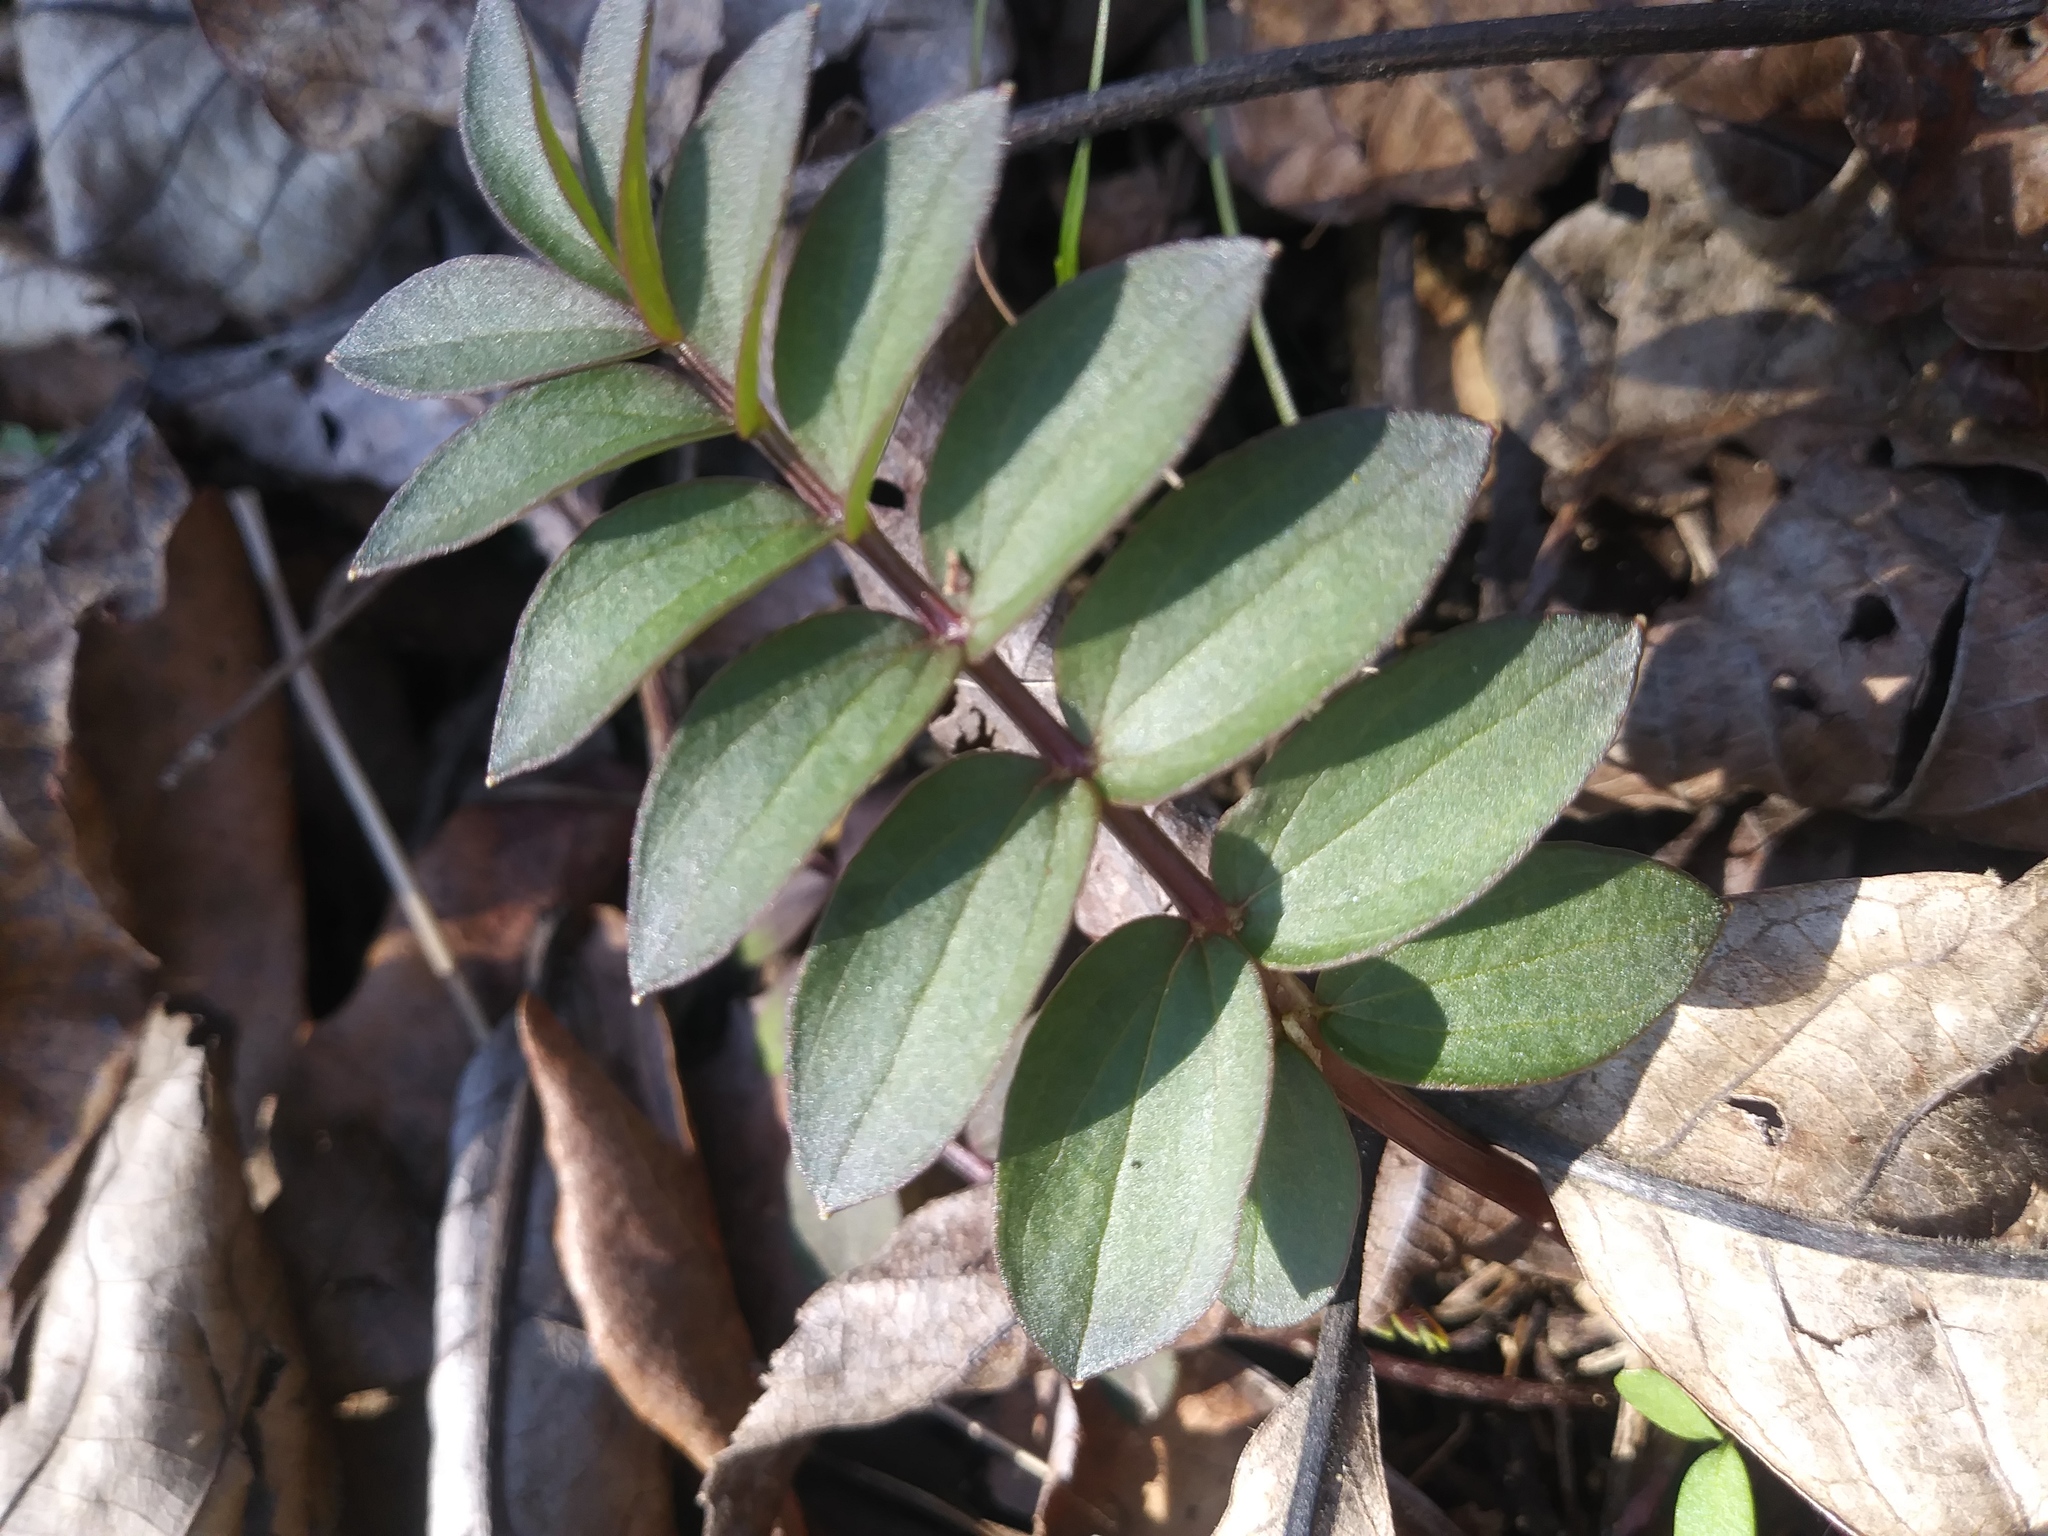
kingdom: Plantae
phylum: Tracheophyta
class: Magnoliopsida
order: Ericales
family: Polemoniaceae
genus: Polemonium
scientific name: Polemonium reptans
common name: Creeping jacob's-ladder
